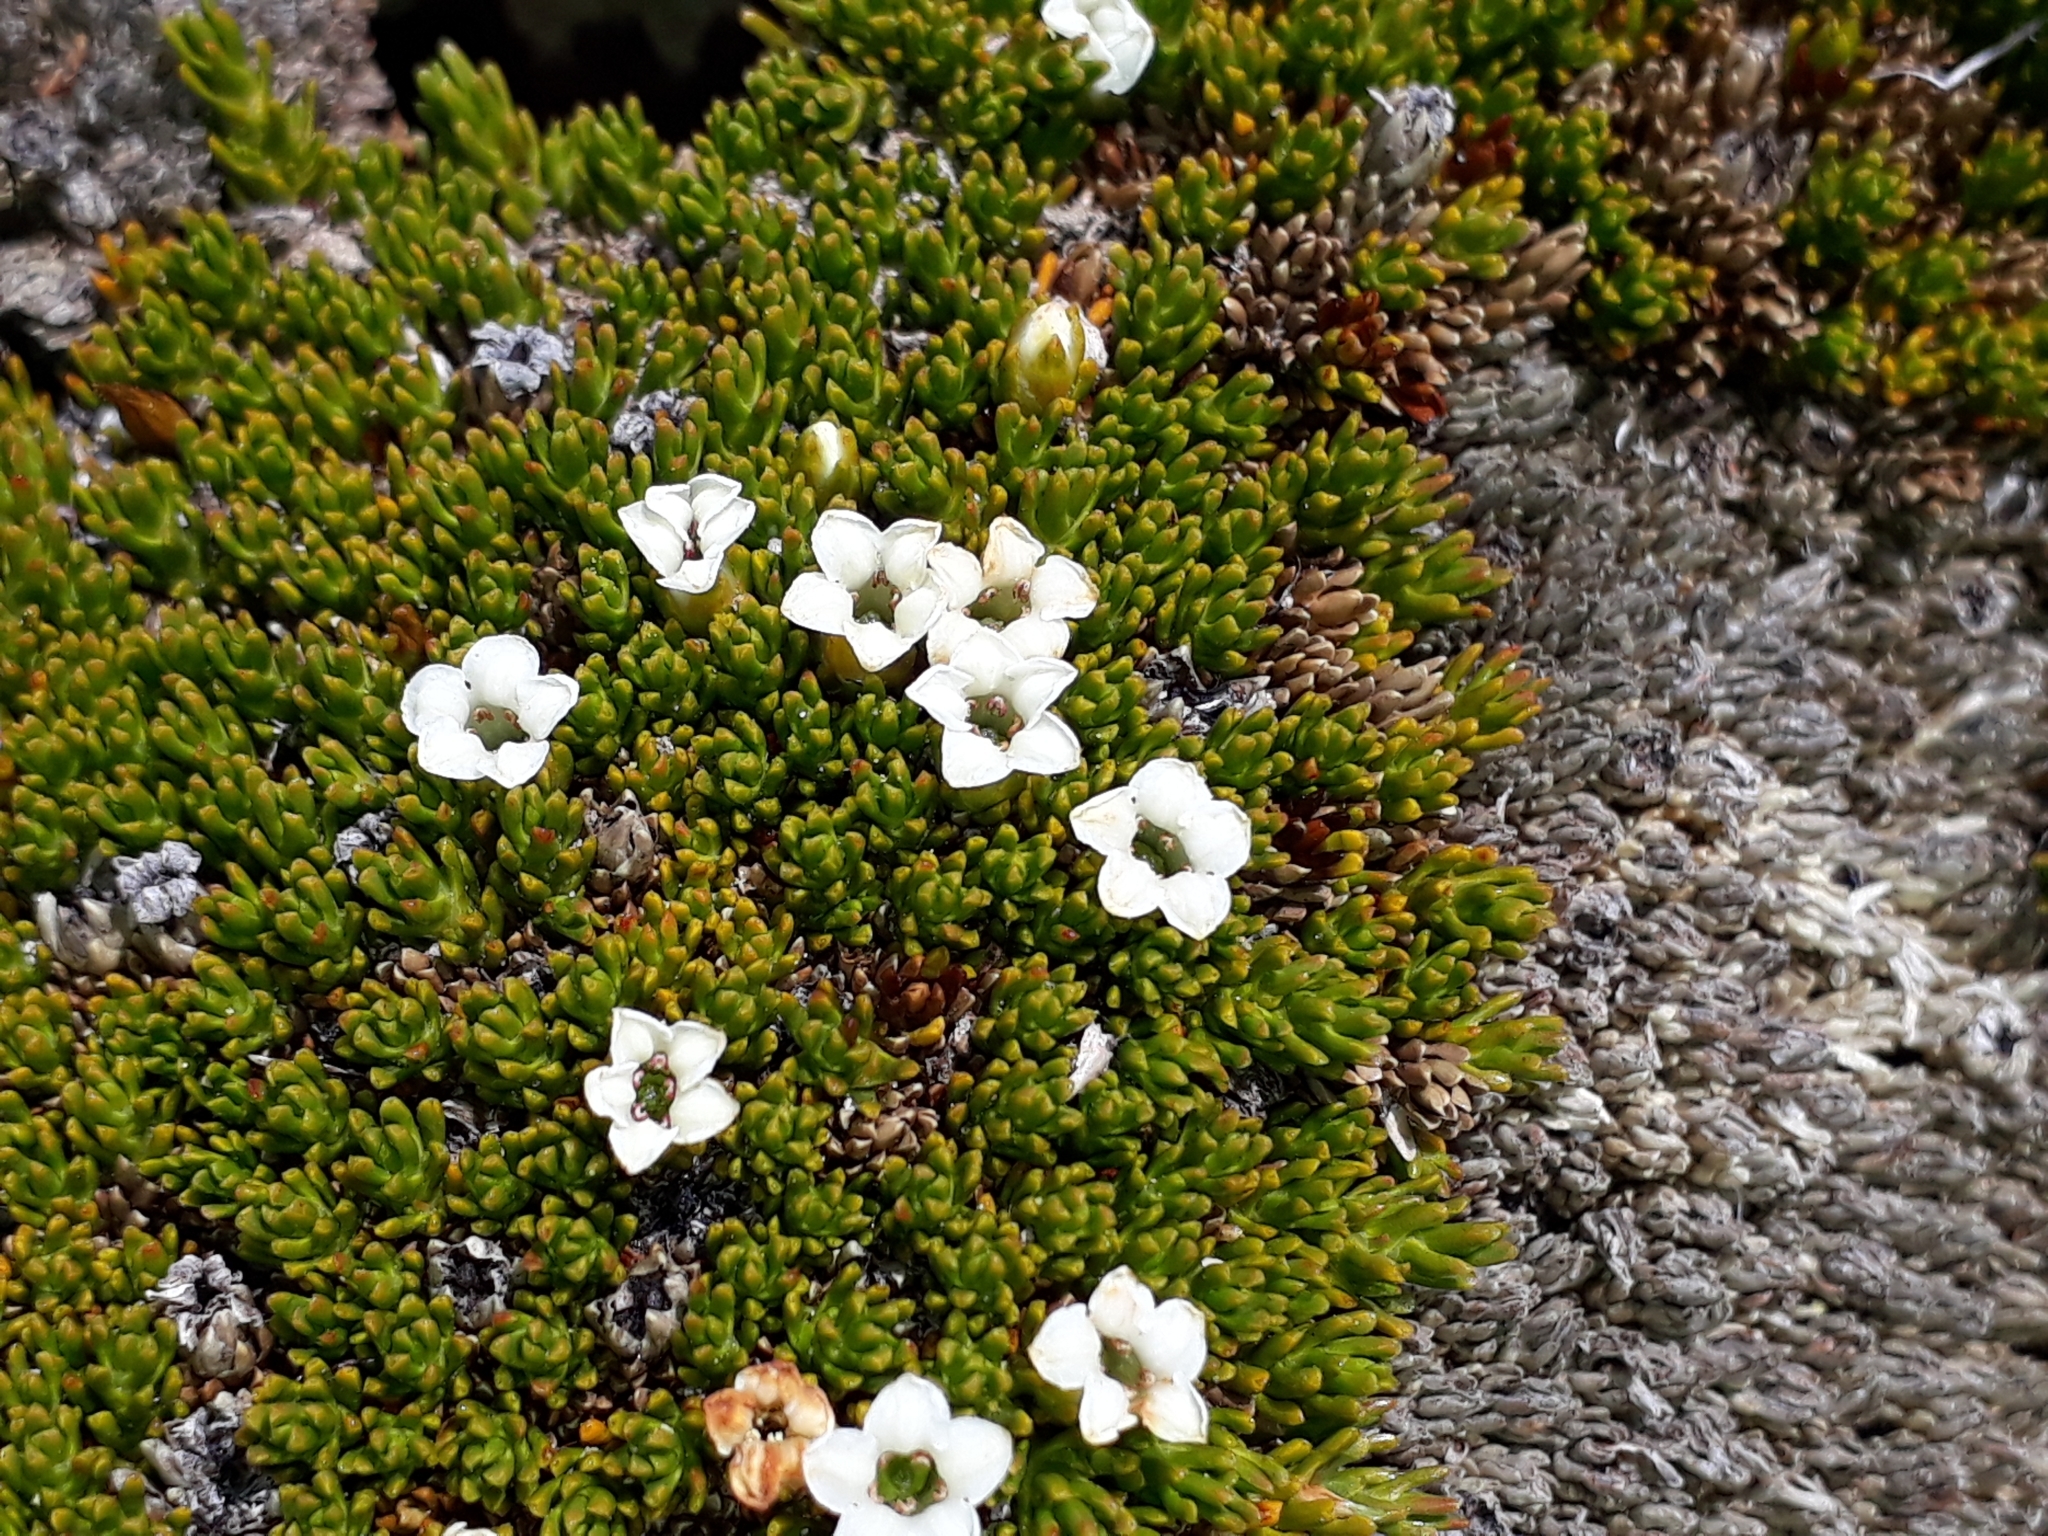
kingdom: Plantae
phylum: Tracheophyta
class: Magnoliopsida
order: Ericales
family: Ericaceae
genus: Dracophyllum
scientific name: Dracophyllum muscoides
